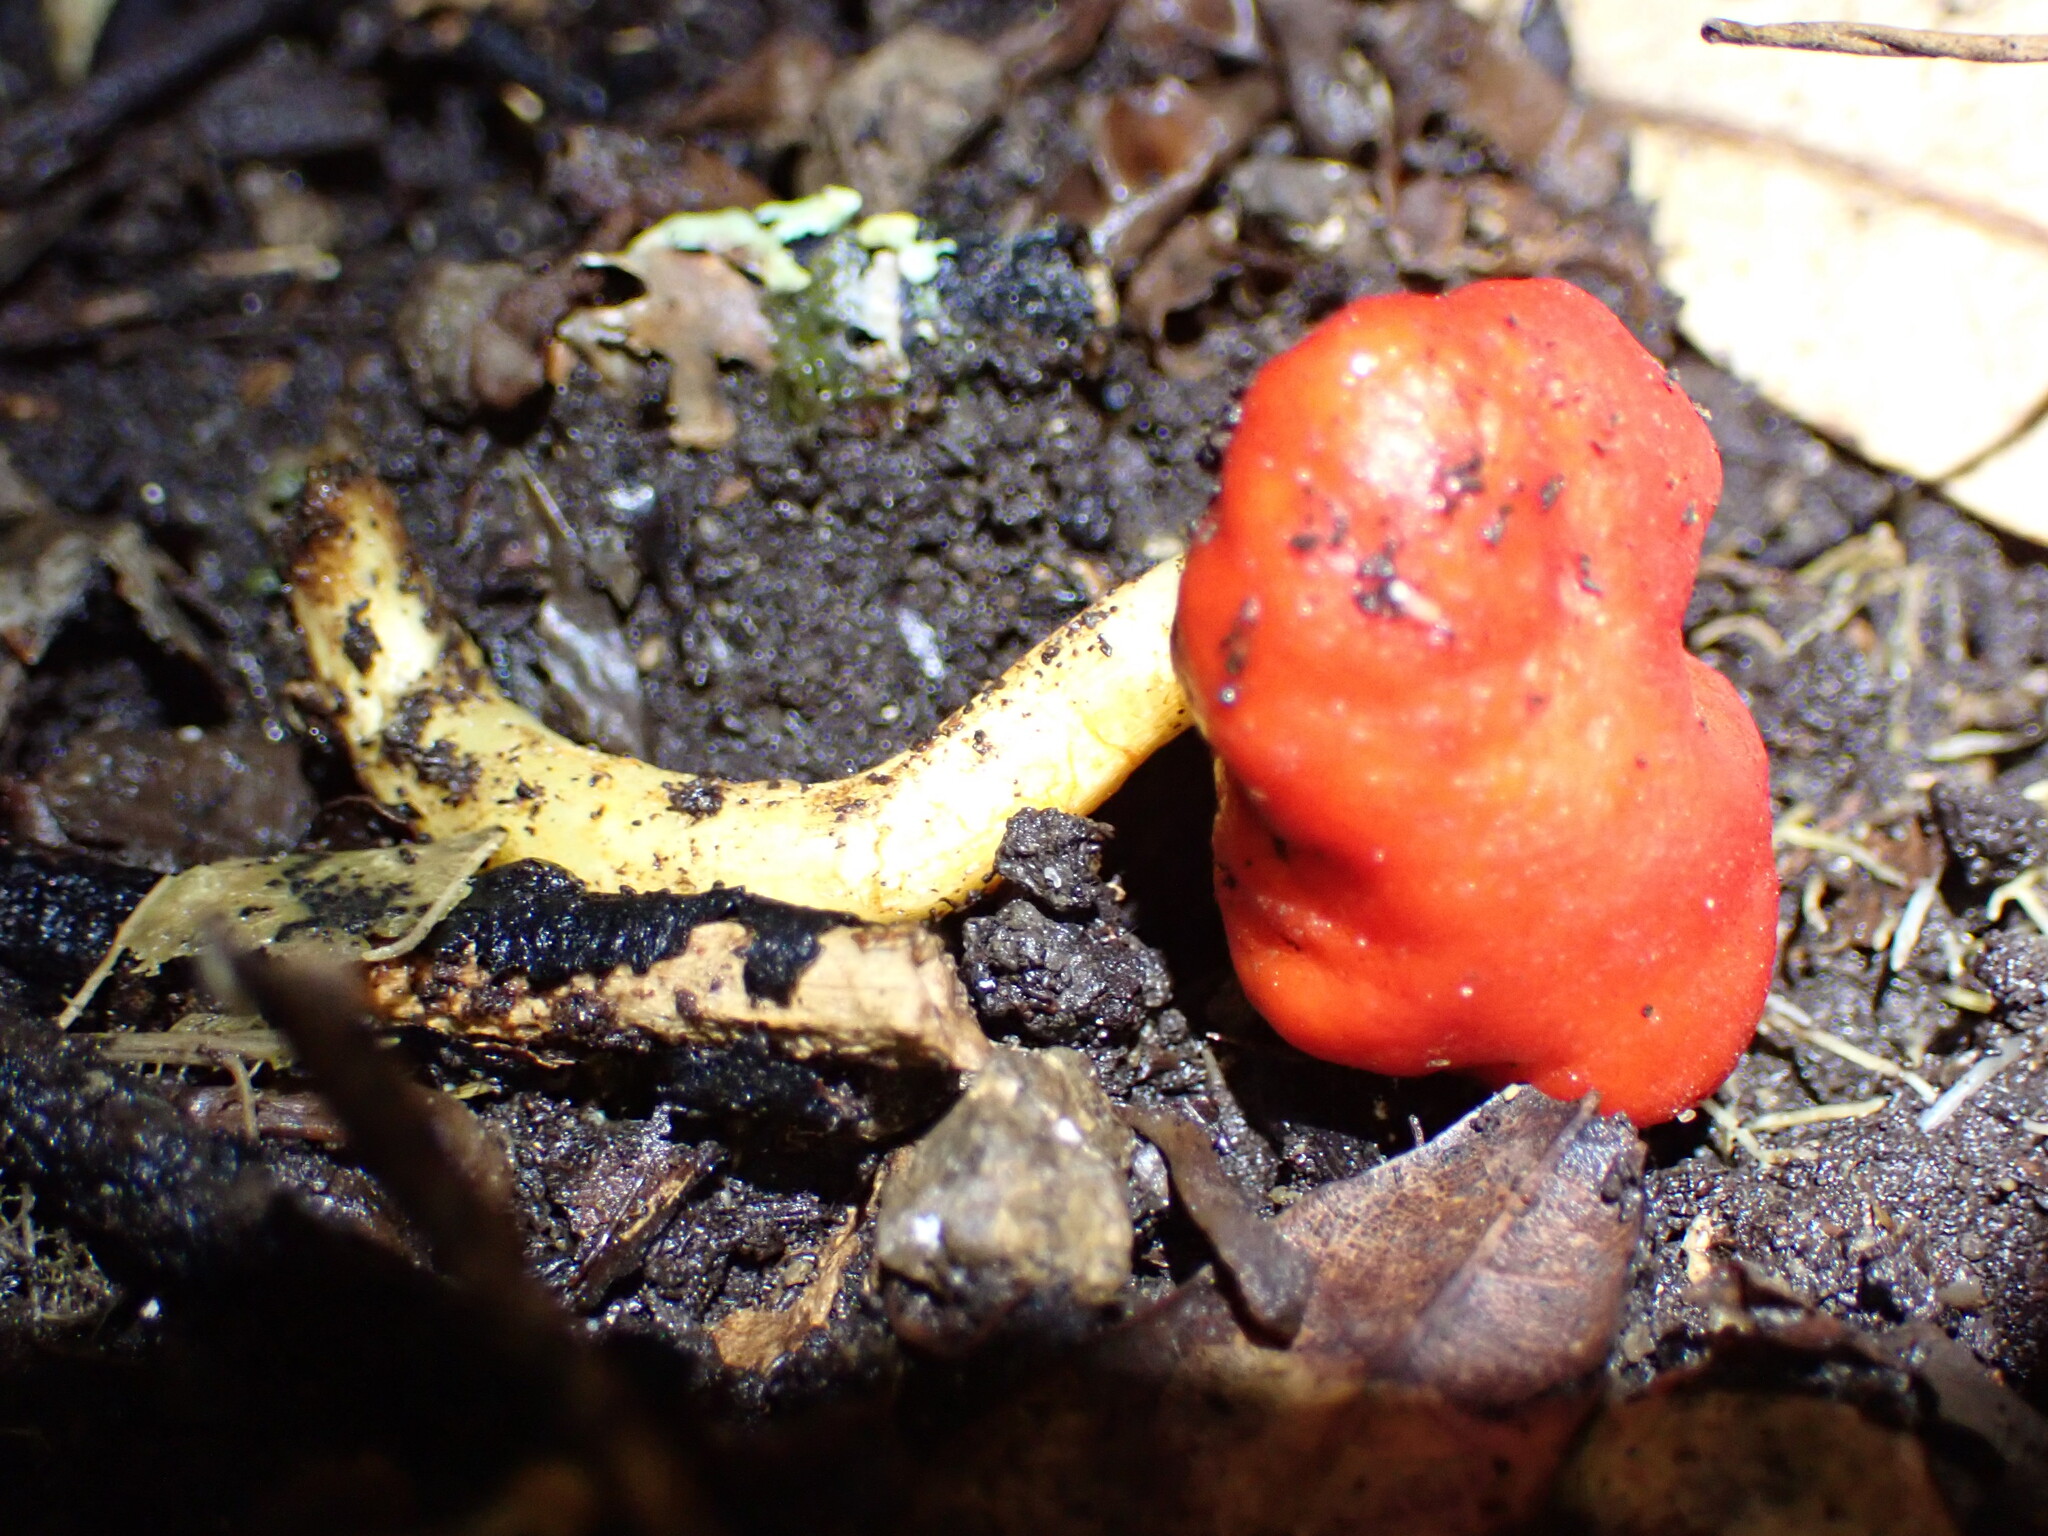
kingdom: Fungi
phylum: Basidiomycota
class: Agaricomycetes
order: Agaricales
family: Strophariaceae
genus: Leratiomyces
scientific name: Leratiomyces erythrocephalus
